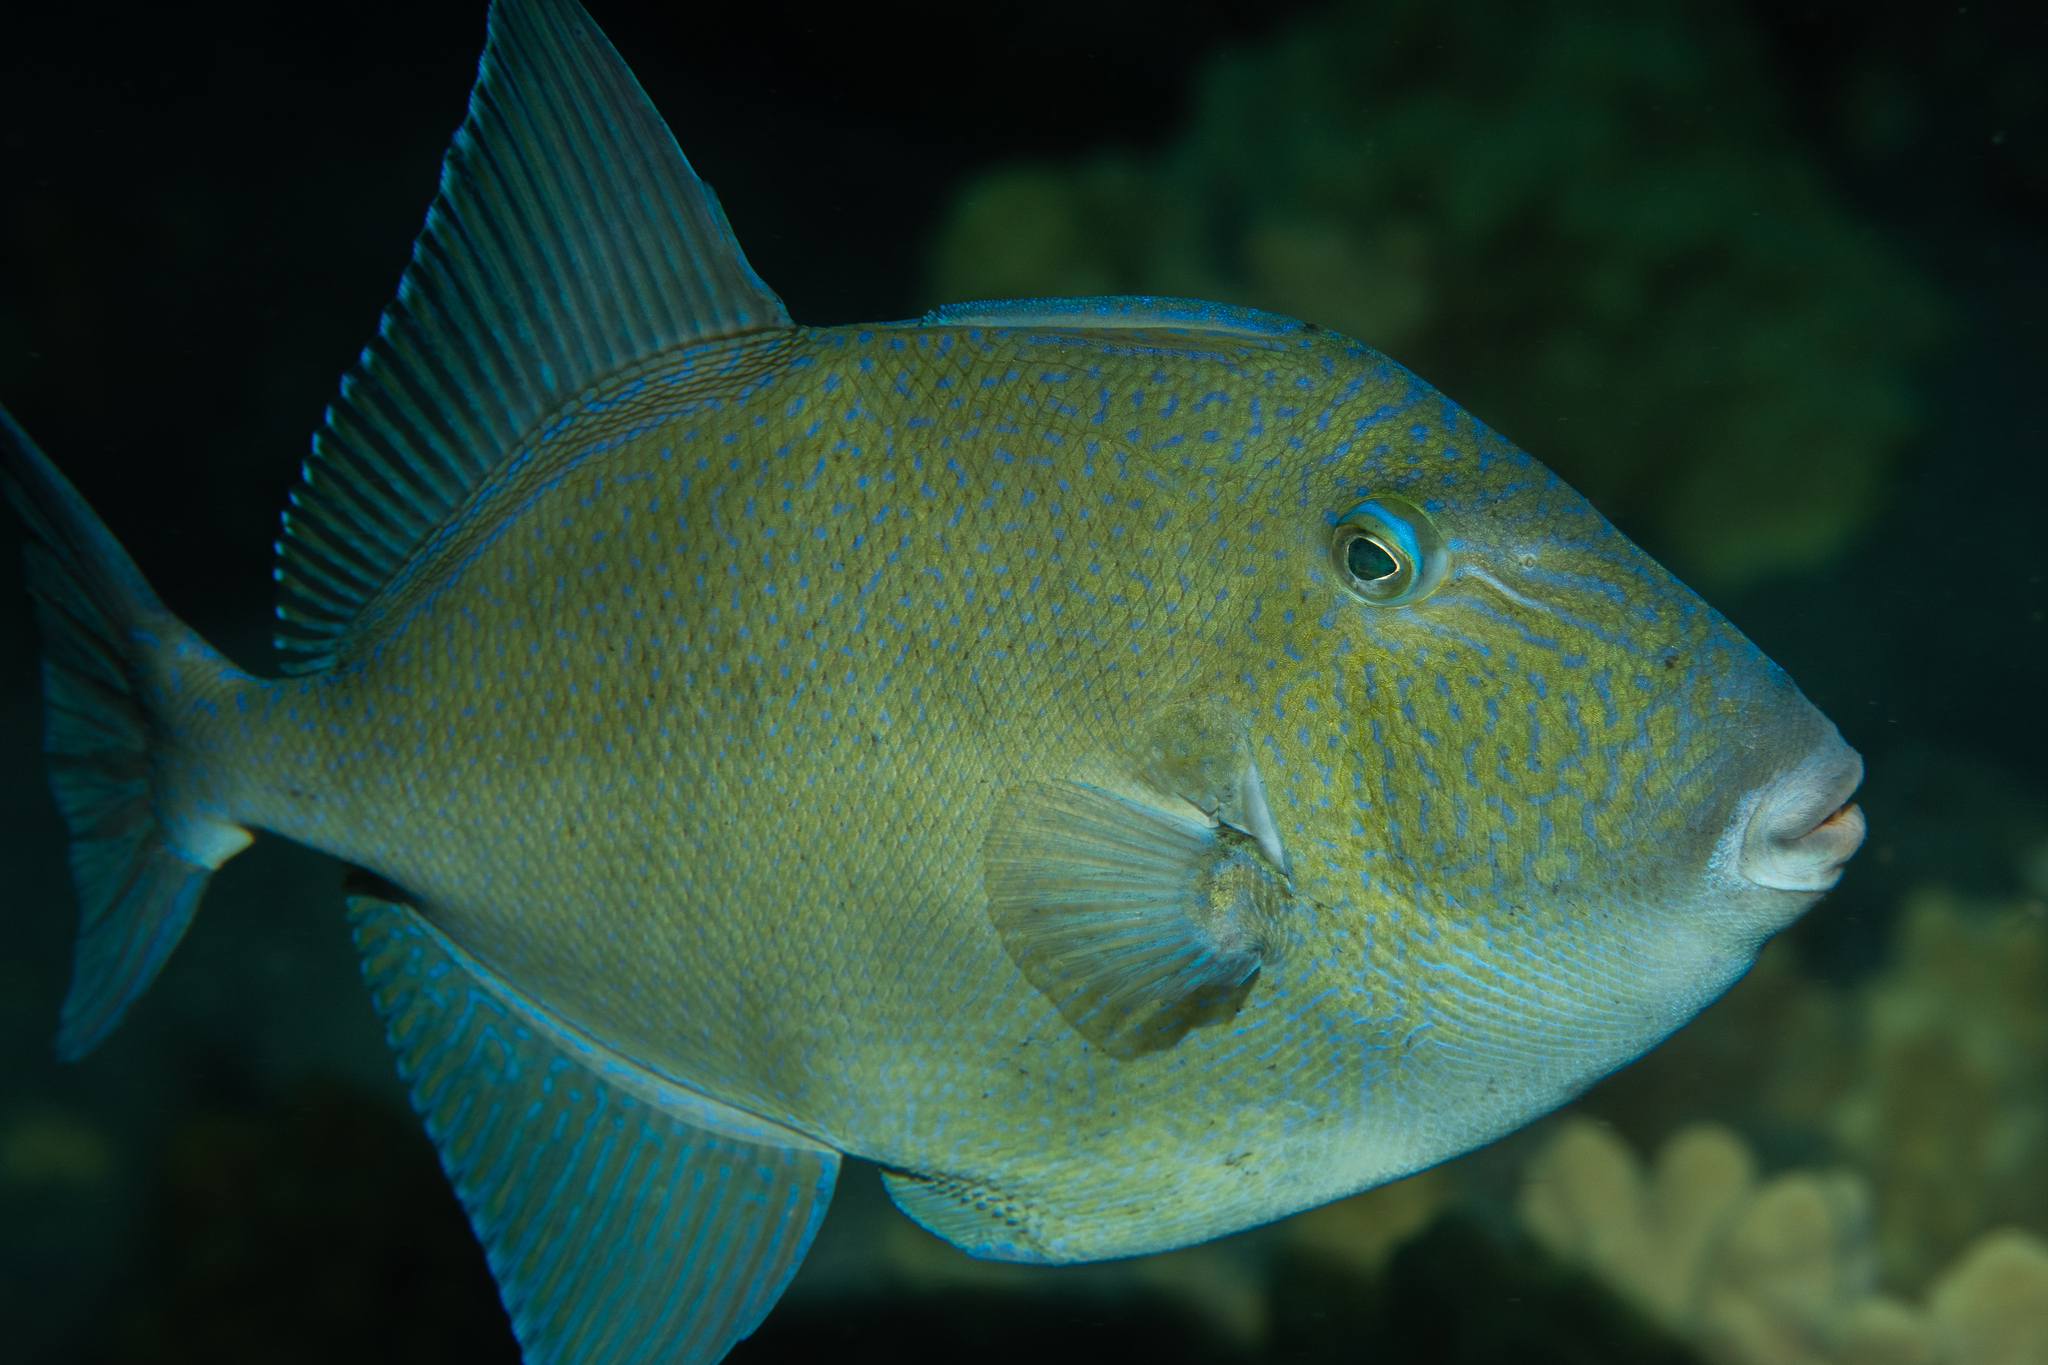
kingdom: Animalia
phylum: Chordata
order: Tetraodontiformes
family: Balistidae
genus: Balistes
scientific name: Balistes polylepis
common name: Finescale triggerfish
